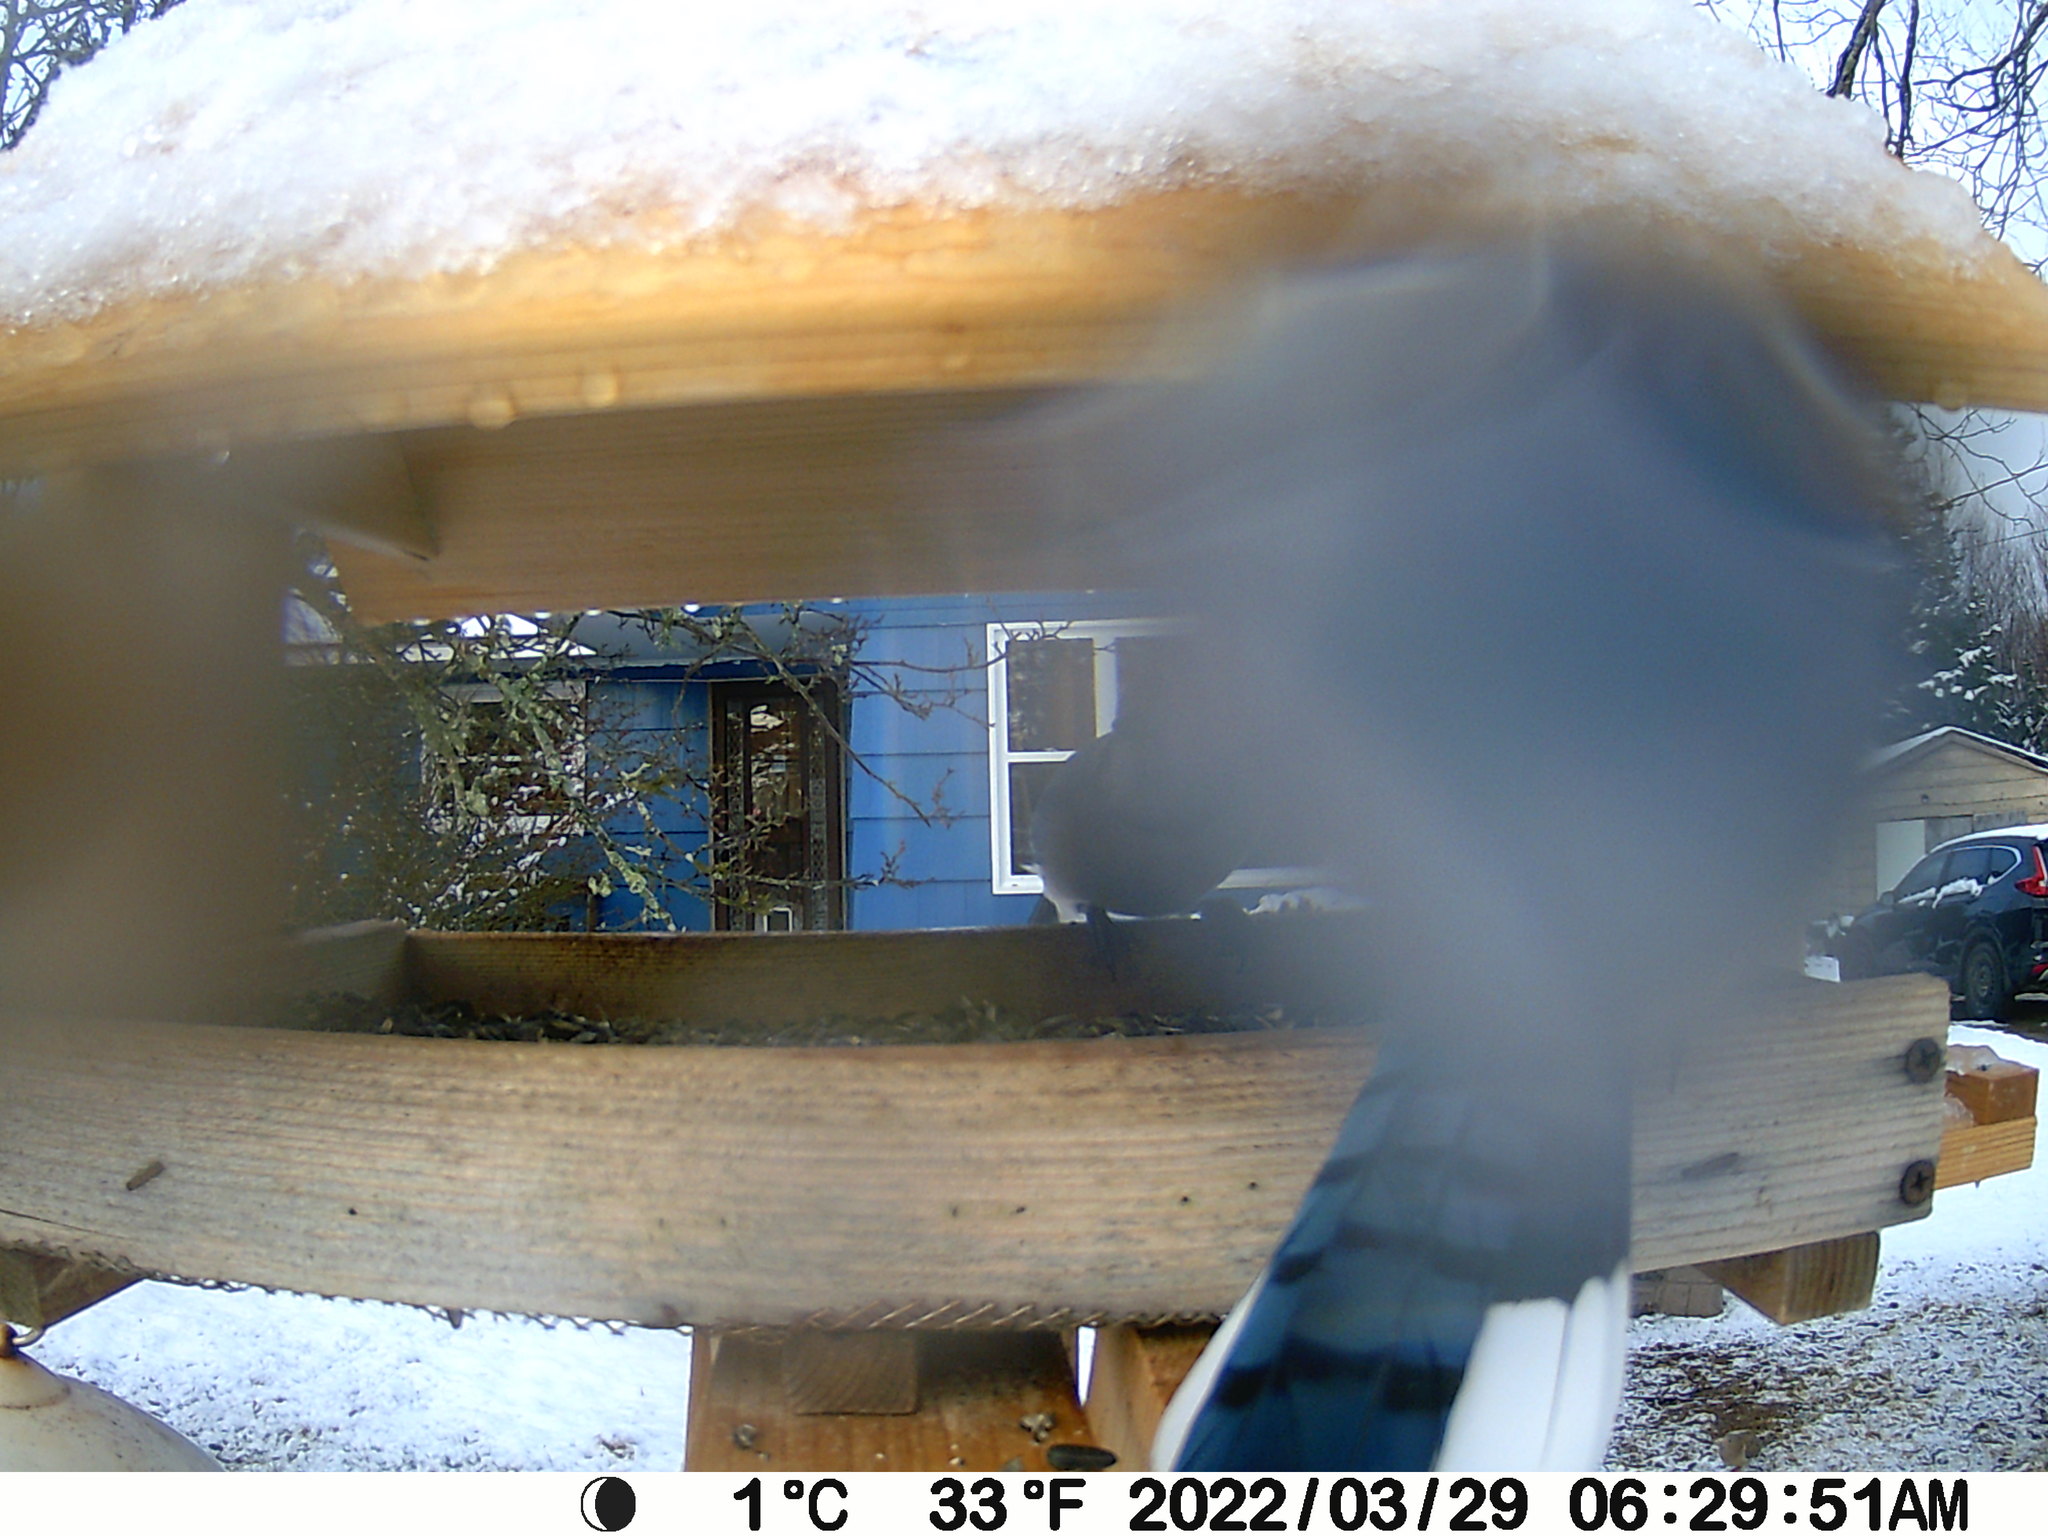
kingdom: Animalia
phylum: Chordata
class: Aves
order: Columbiformes
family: Columbidae
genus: Zenaida
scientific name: Zenaida macroura
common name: Mourning dove
